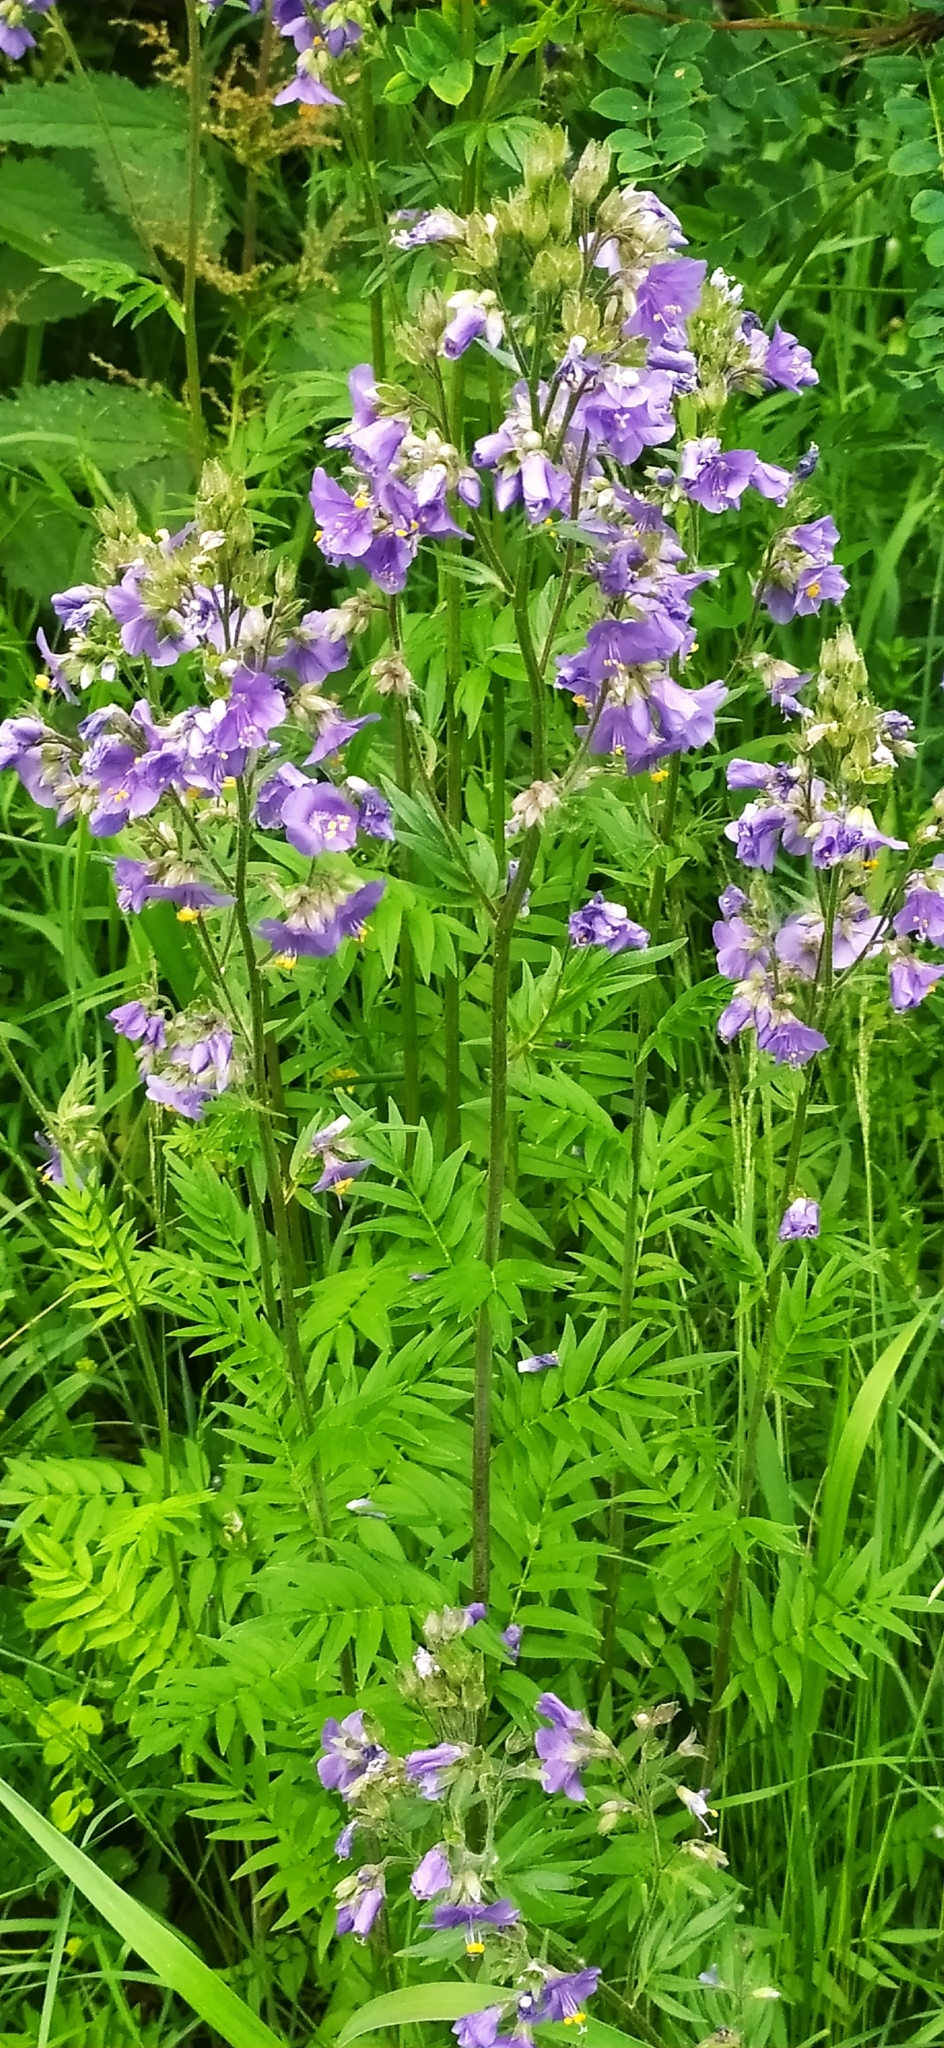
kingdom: Plantae
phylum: Tracheophyta
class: Magnoliopsida
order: Ericales
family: Polemoniaceae
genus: Polemonium
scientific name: Polemonium caeruleum
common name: Jacob's-ladder
